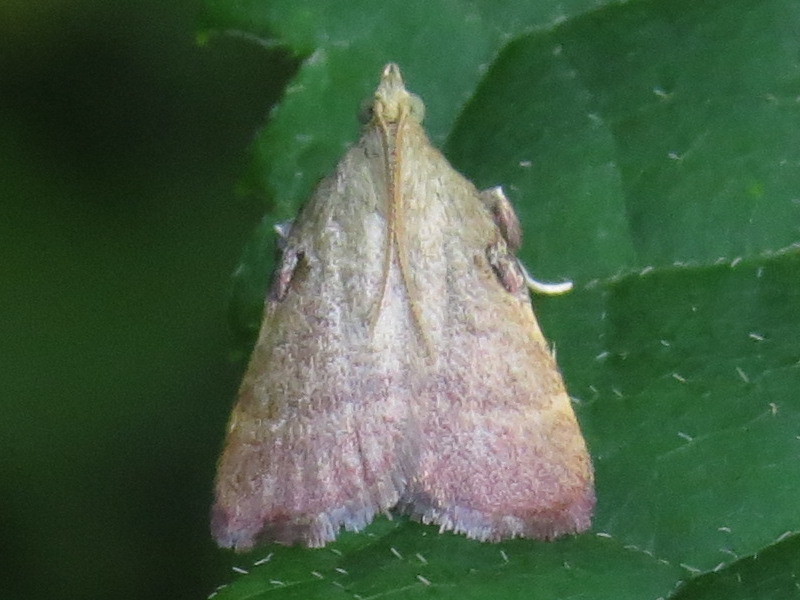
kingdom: Animalia
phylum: Arthropoda
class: Insecta
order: Lepidoptera
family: Pyralidae
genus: Condylolomia
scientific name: Condylolomia participialis
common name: Drab condylolomia moth
